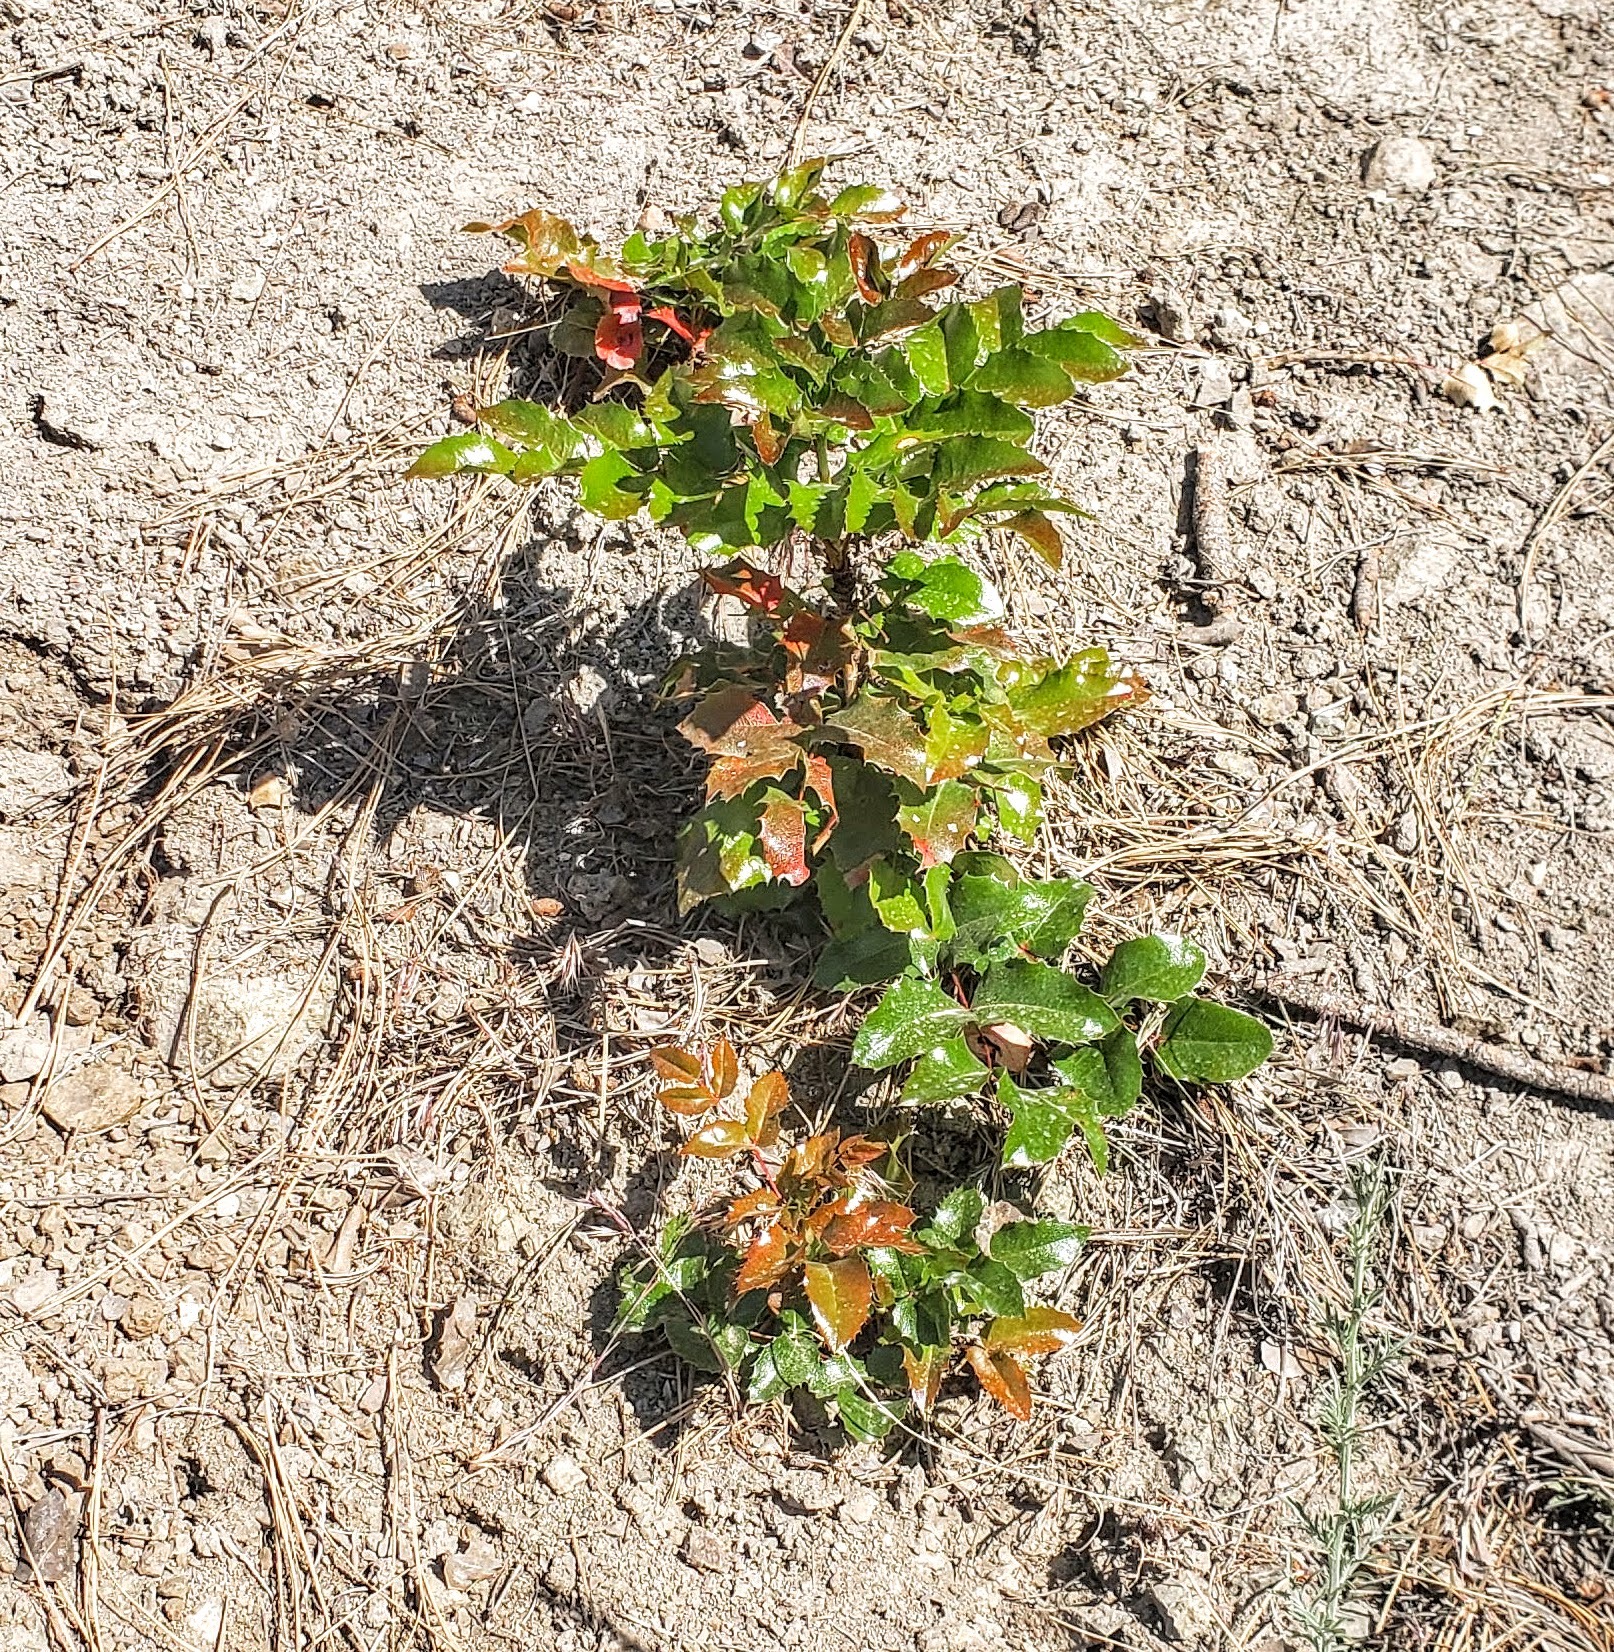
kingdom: Plantae
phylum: Tracheophyta
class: Magnoliopsida
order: Ranunculales
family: Berberidaceae
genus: Mahonia
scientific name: Mahonia aquifolium
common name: Oregon-grape
